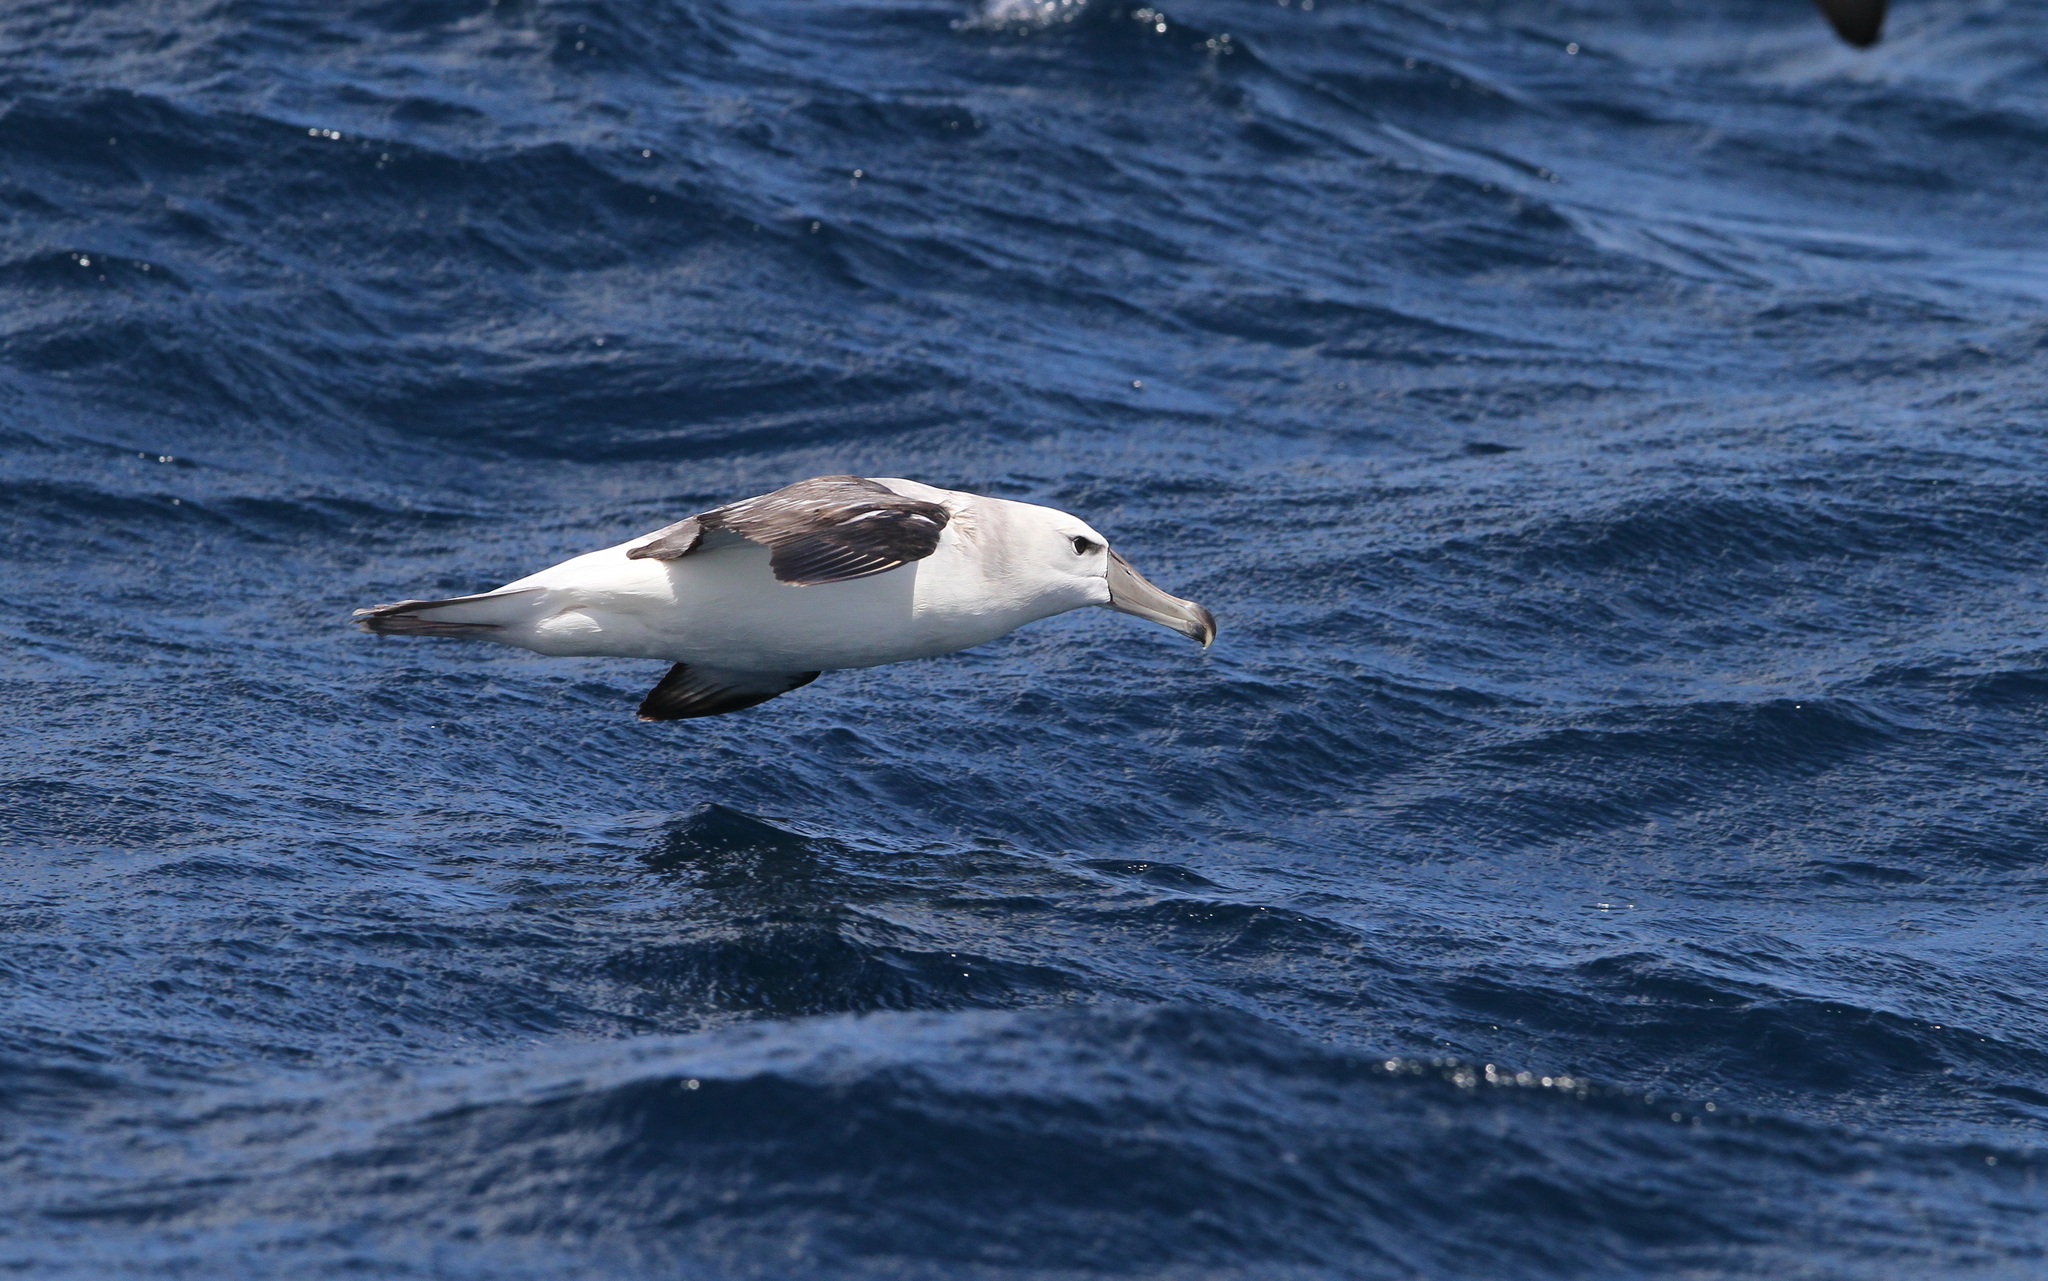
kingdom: Animalia
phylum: Chordata
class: Aves
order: Procellariiformes
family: Diomedeidae
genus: Thalassarche
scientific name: Thalassarche cauta
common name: Shy albatross
